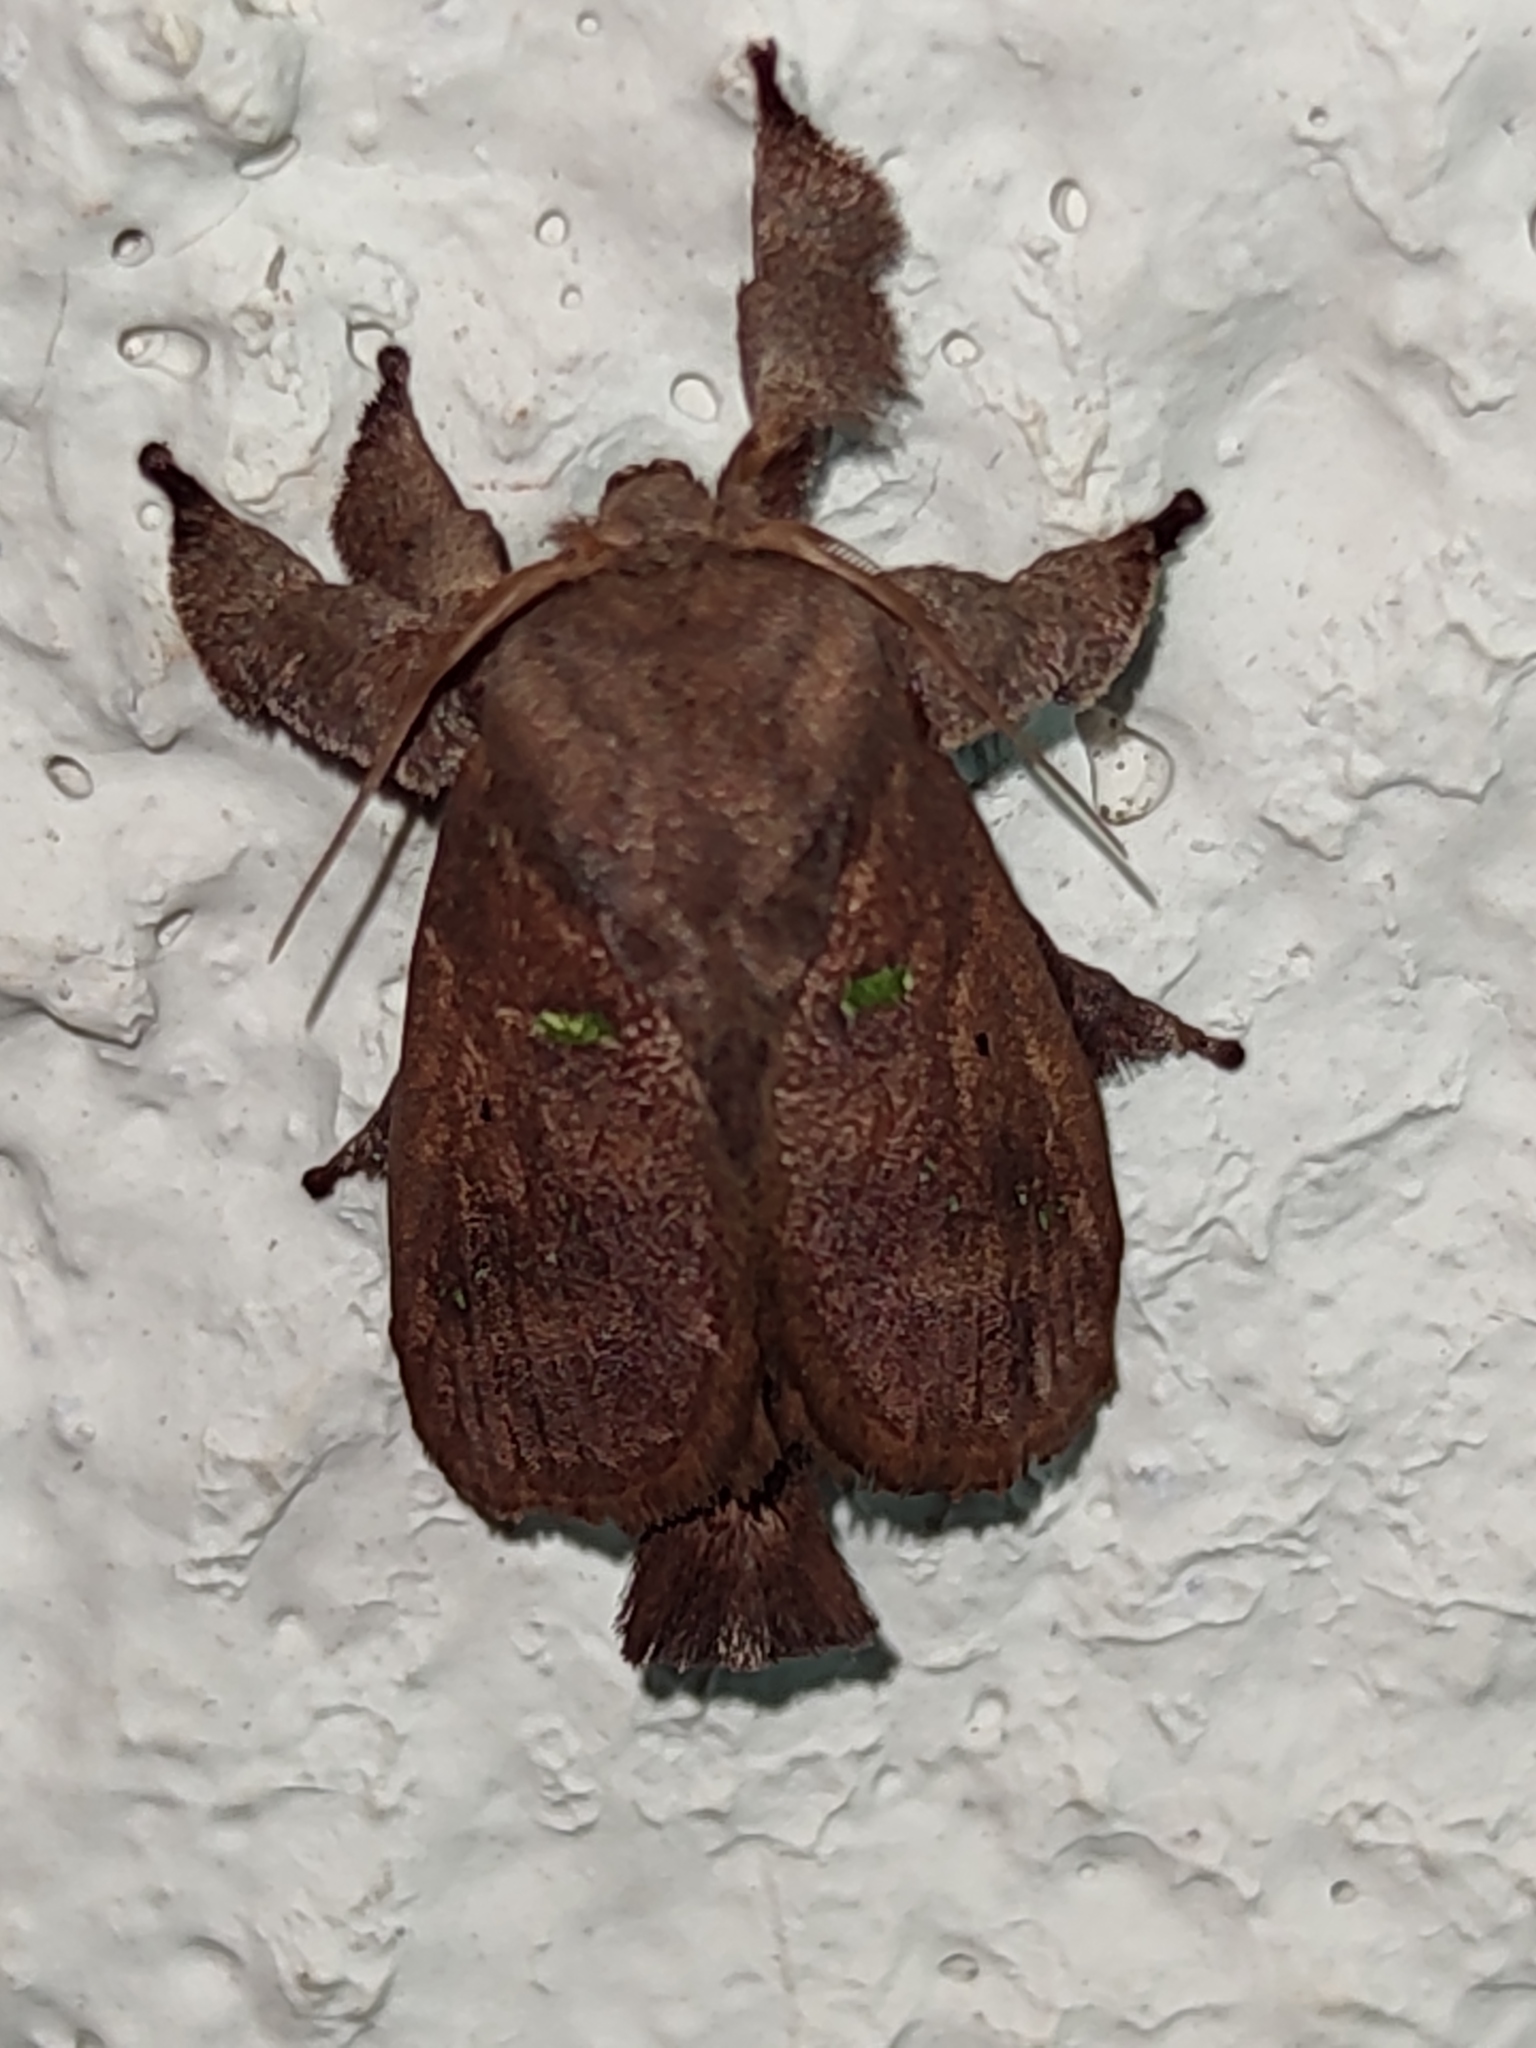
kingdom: Animalia
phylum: Arthropoda
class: Insecta
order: Lepidoptera
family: Limacodidae
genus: Euclea
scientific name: Euclea norba
